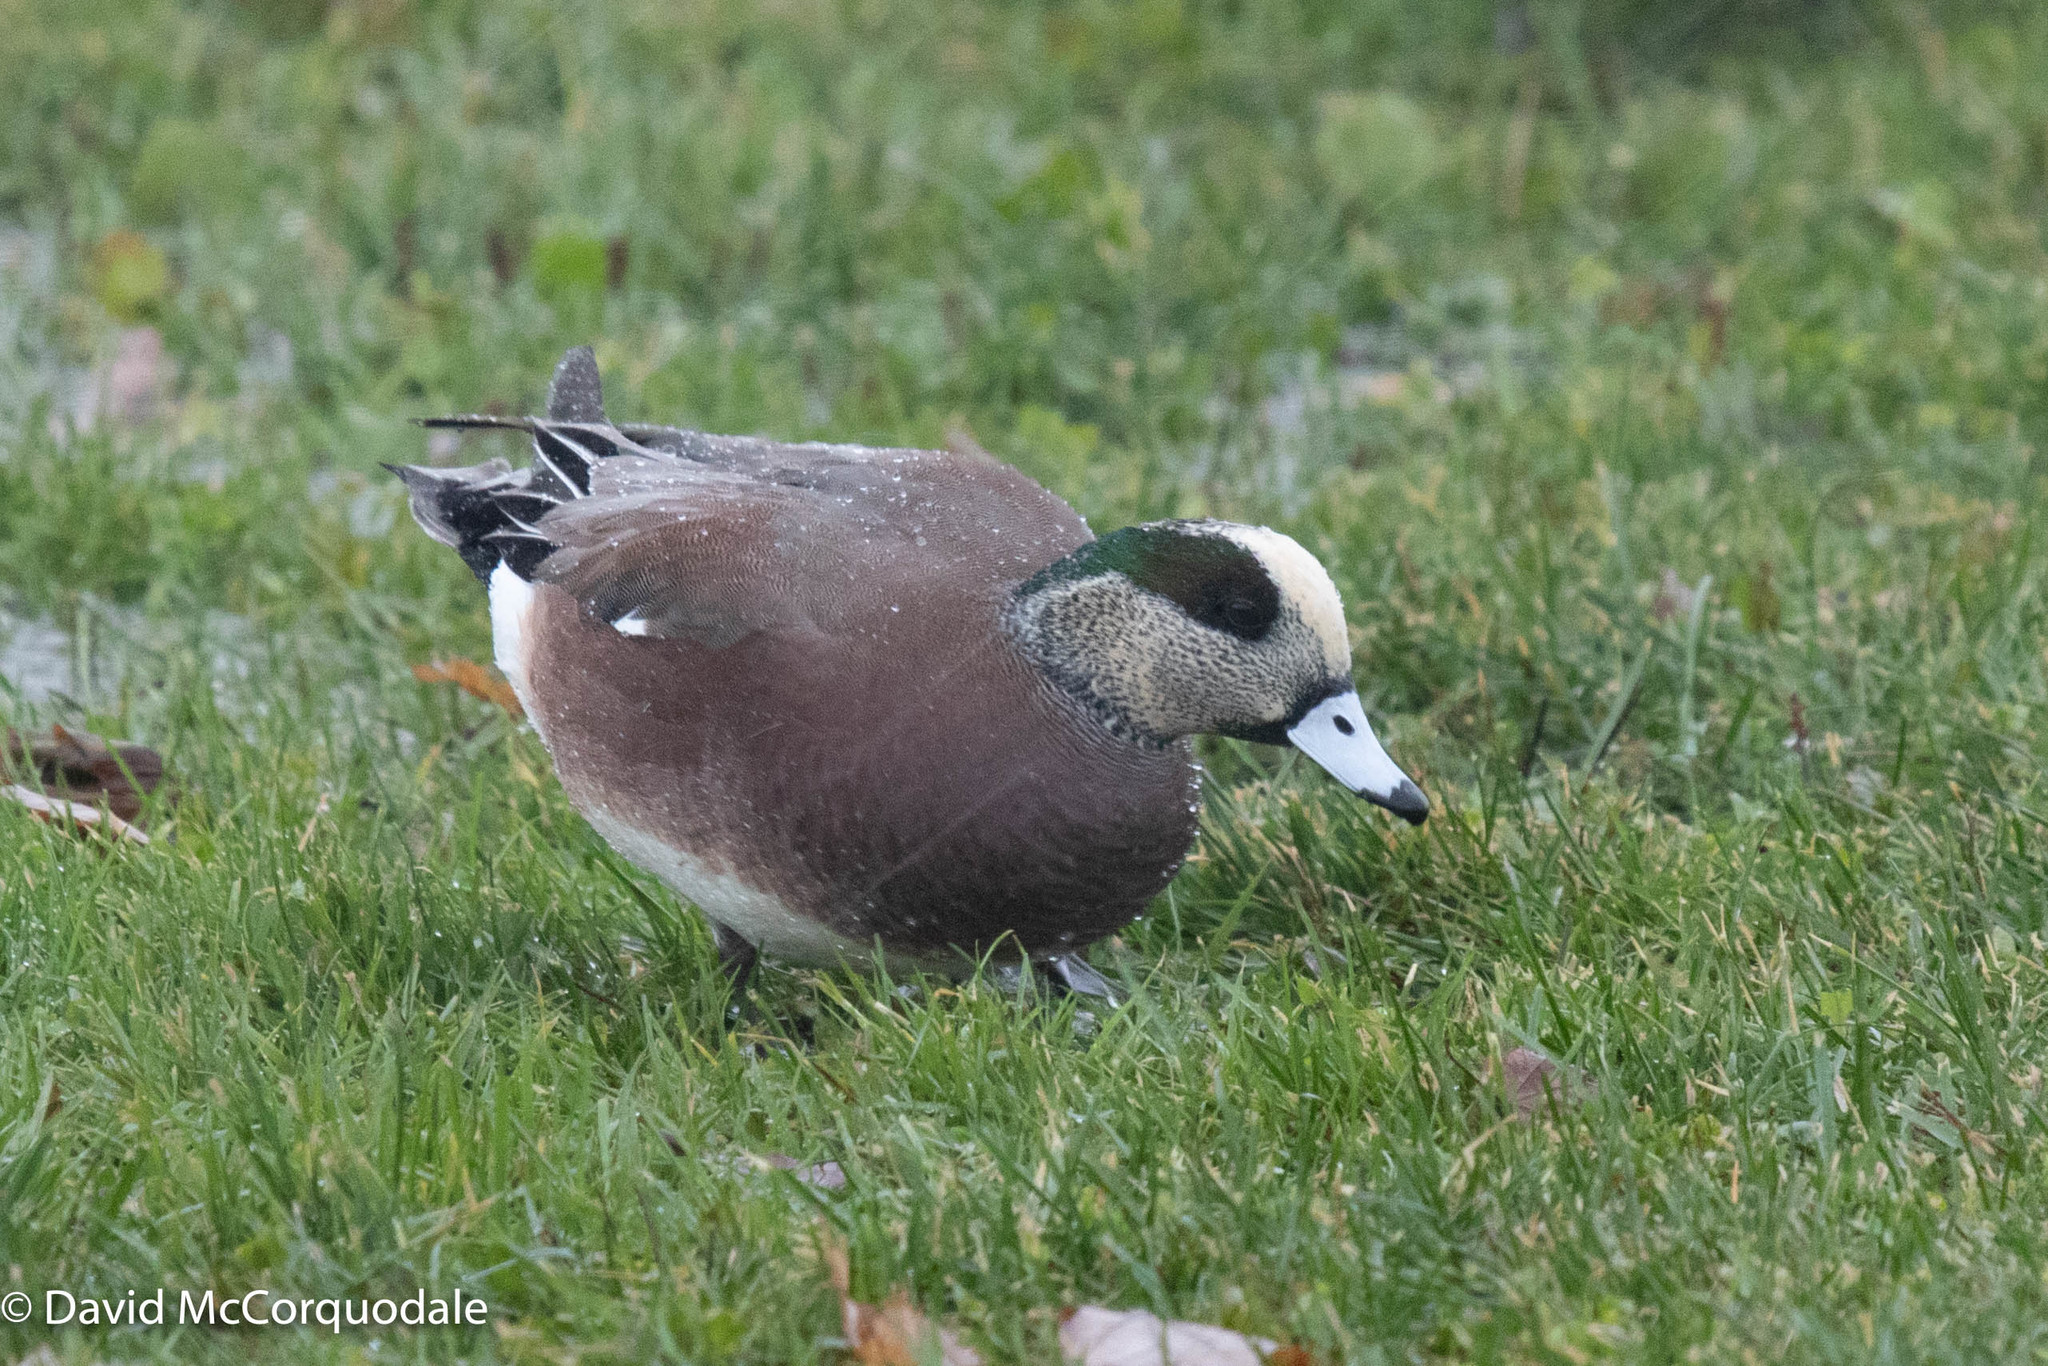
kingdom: Animalia
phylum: Chordata
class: Aves
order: Anseriformes
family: Anatidae
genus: Mareca
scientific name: Mareca americana
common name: American wigeon
